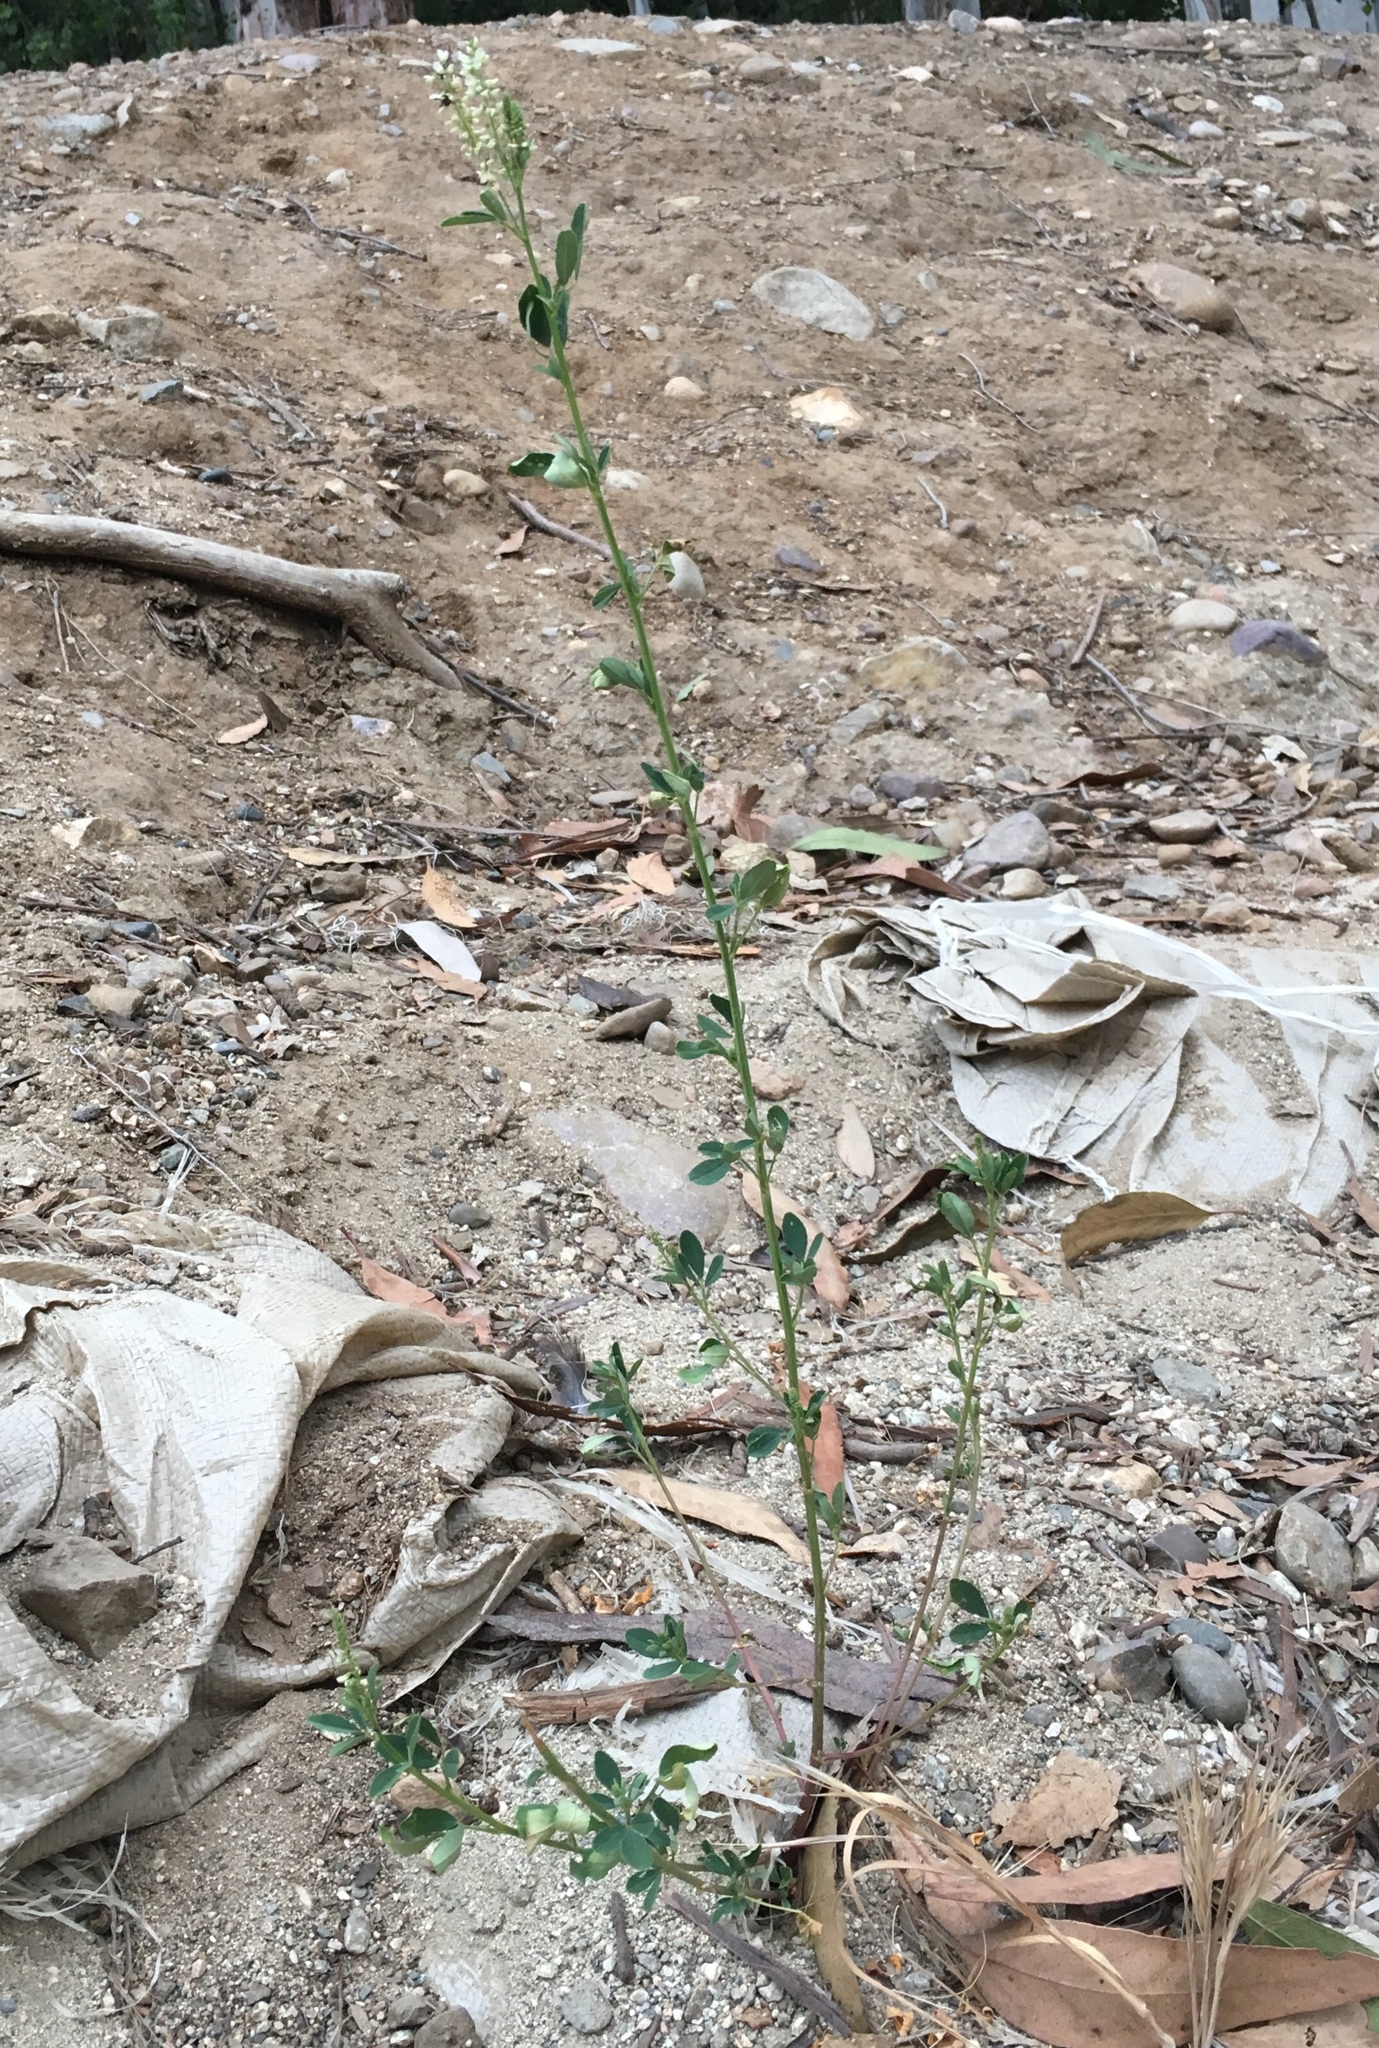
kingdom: Plantae
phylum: Tracheophyta
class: Magnoliopsida
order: Fabales
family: Fabaceae
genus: Melilotus
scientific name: Melilotus albus
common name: White melilot
